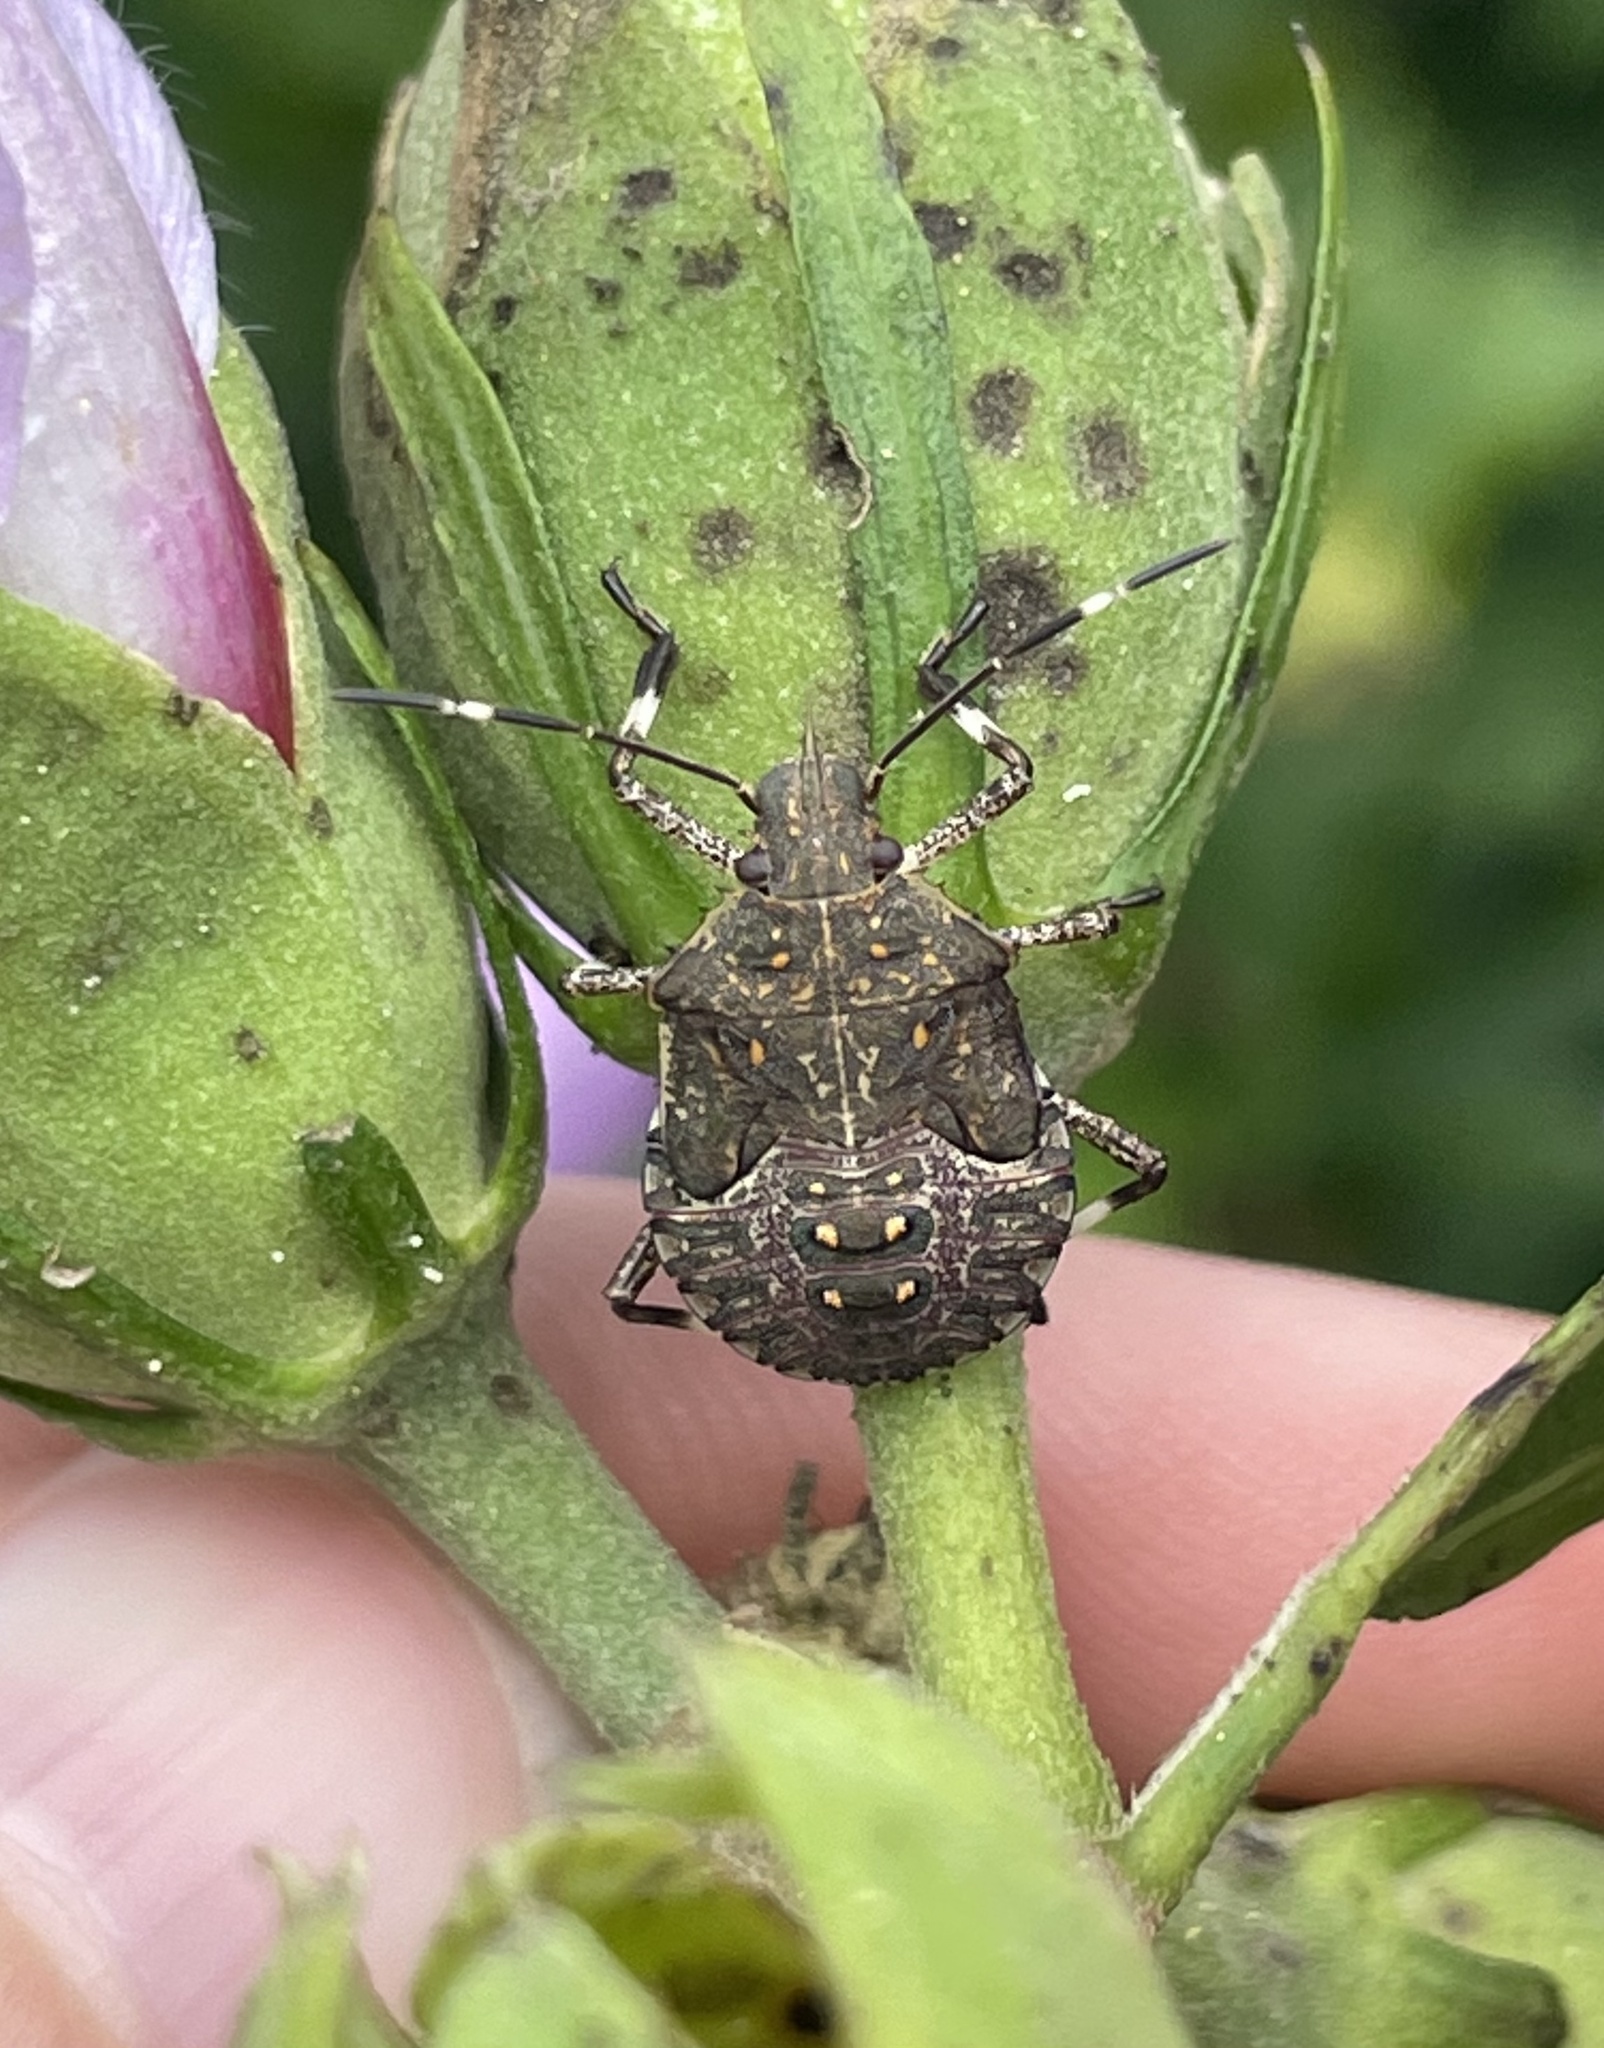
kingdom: Animalia
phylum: Arthropoda
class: Insecta
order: Hemiptera
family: Pentatomidae
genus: Halyomorpha
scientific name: Halyomorpha halys
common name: Brown marmorated stink bug
